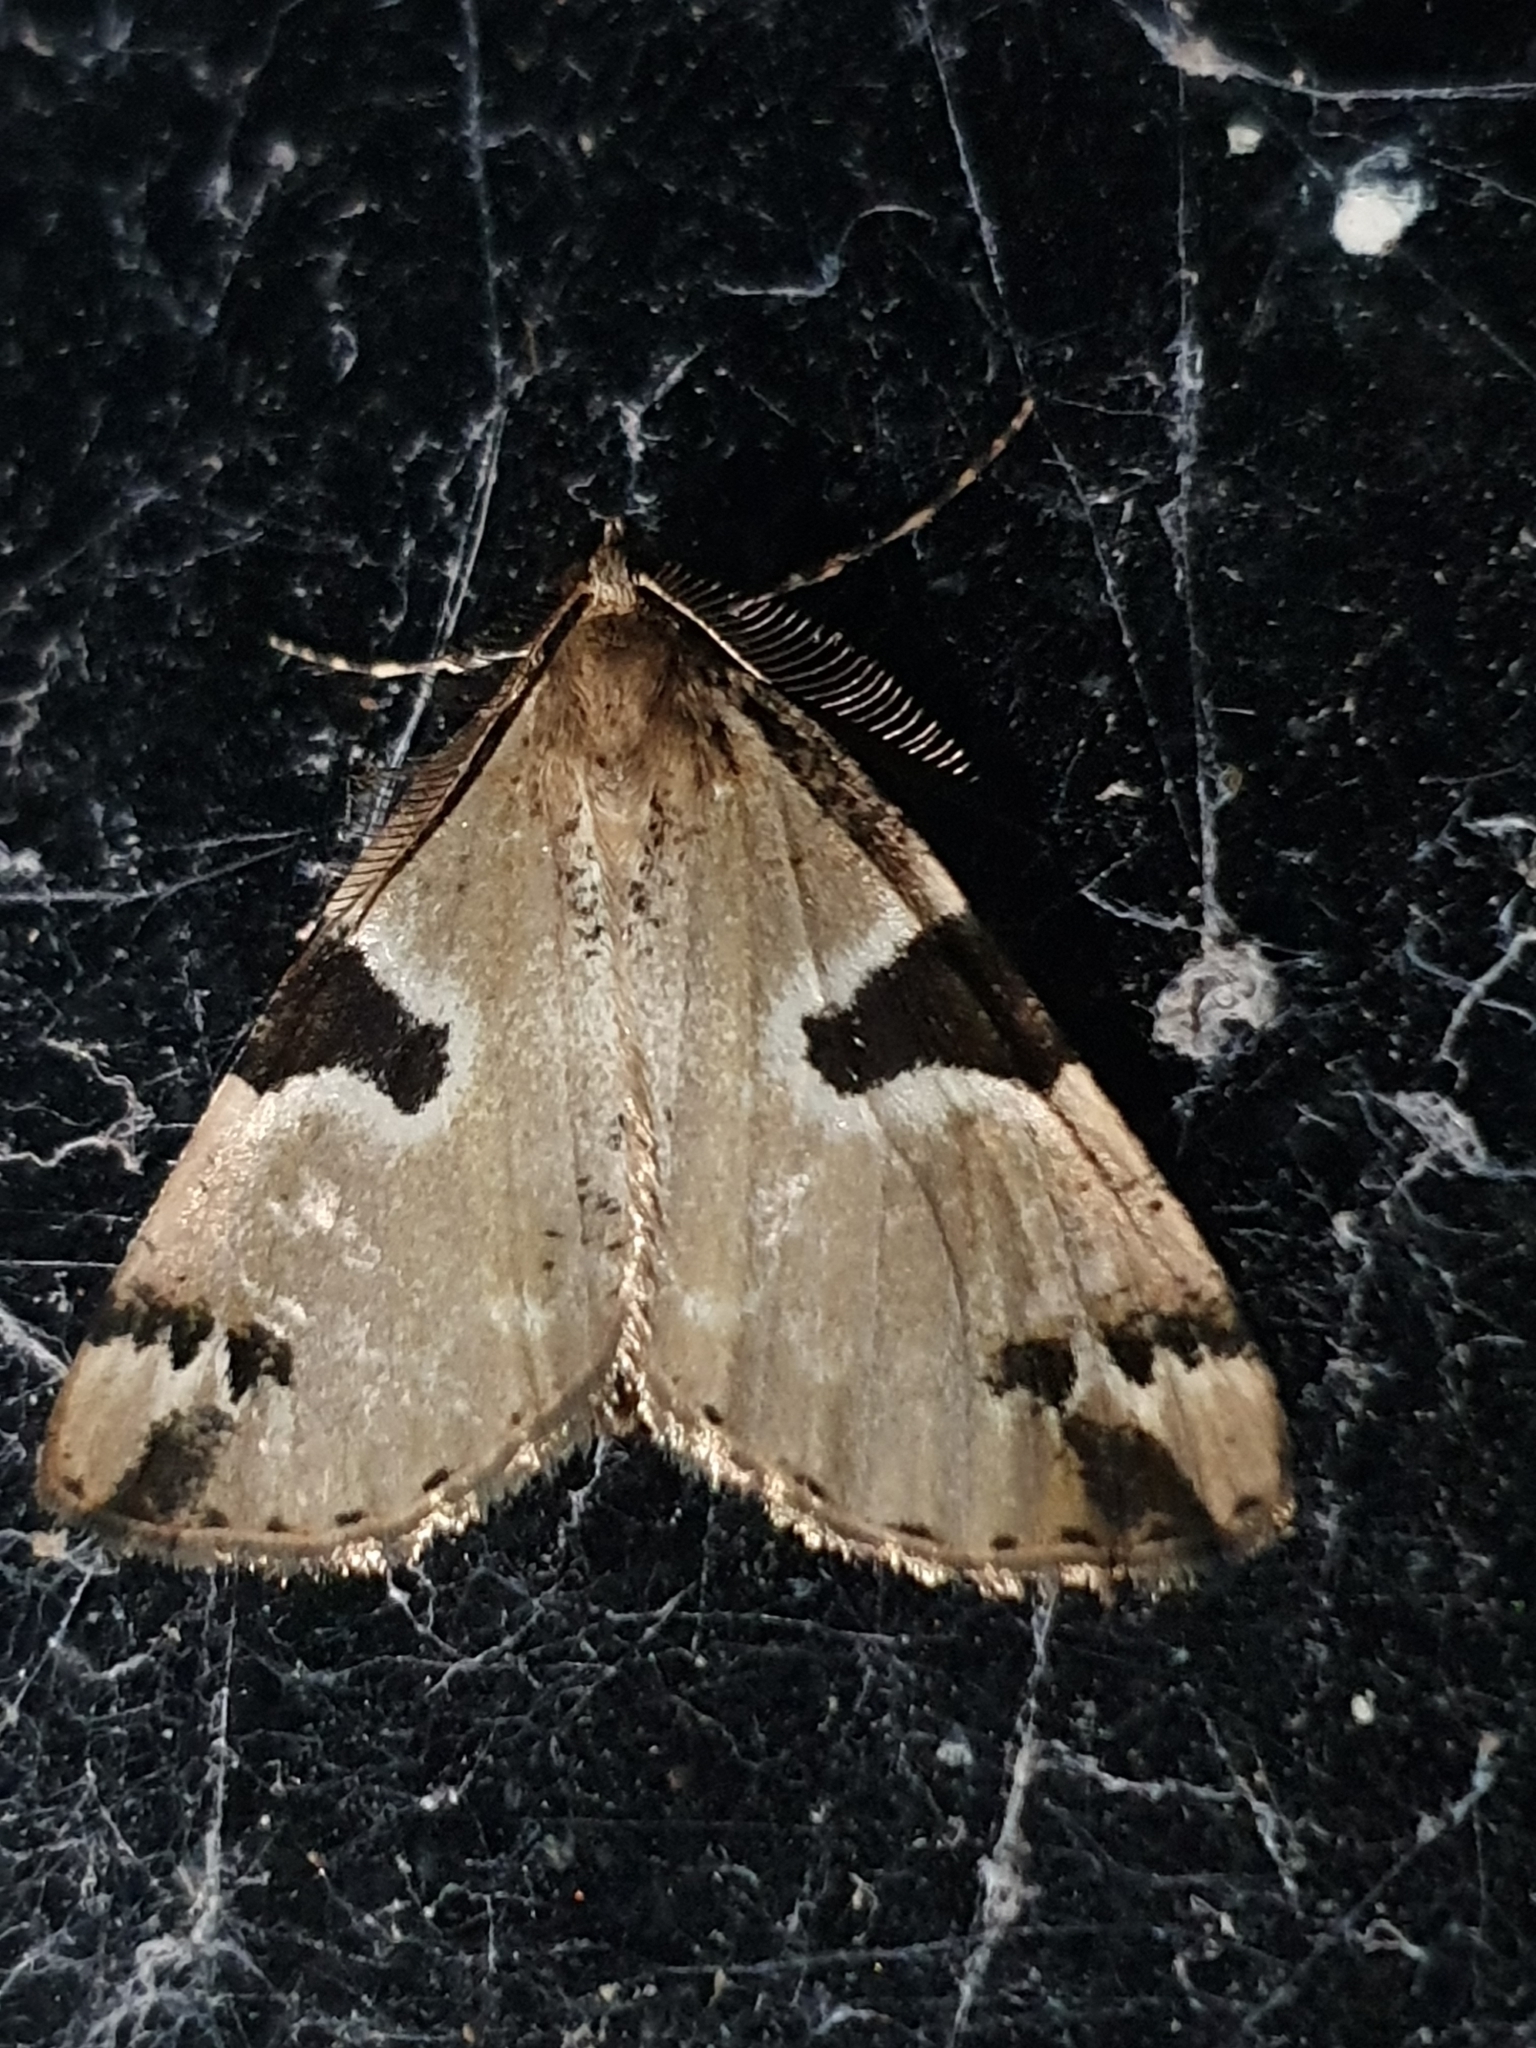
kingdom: Animalia
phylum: Arthropoda
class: Insecta
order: Lepidoptera
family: Geometridae
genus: Pseudocoremia
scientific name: Pseudocoremia flava
